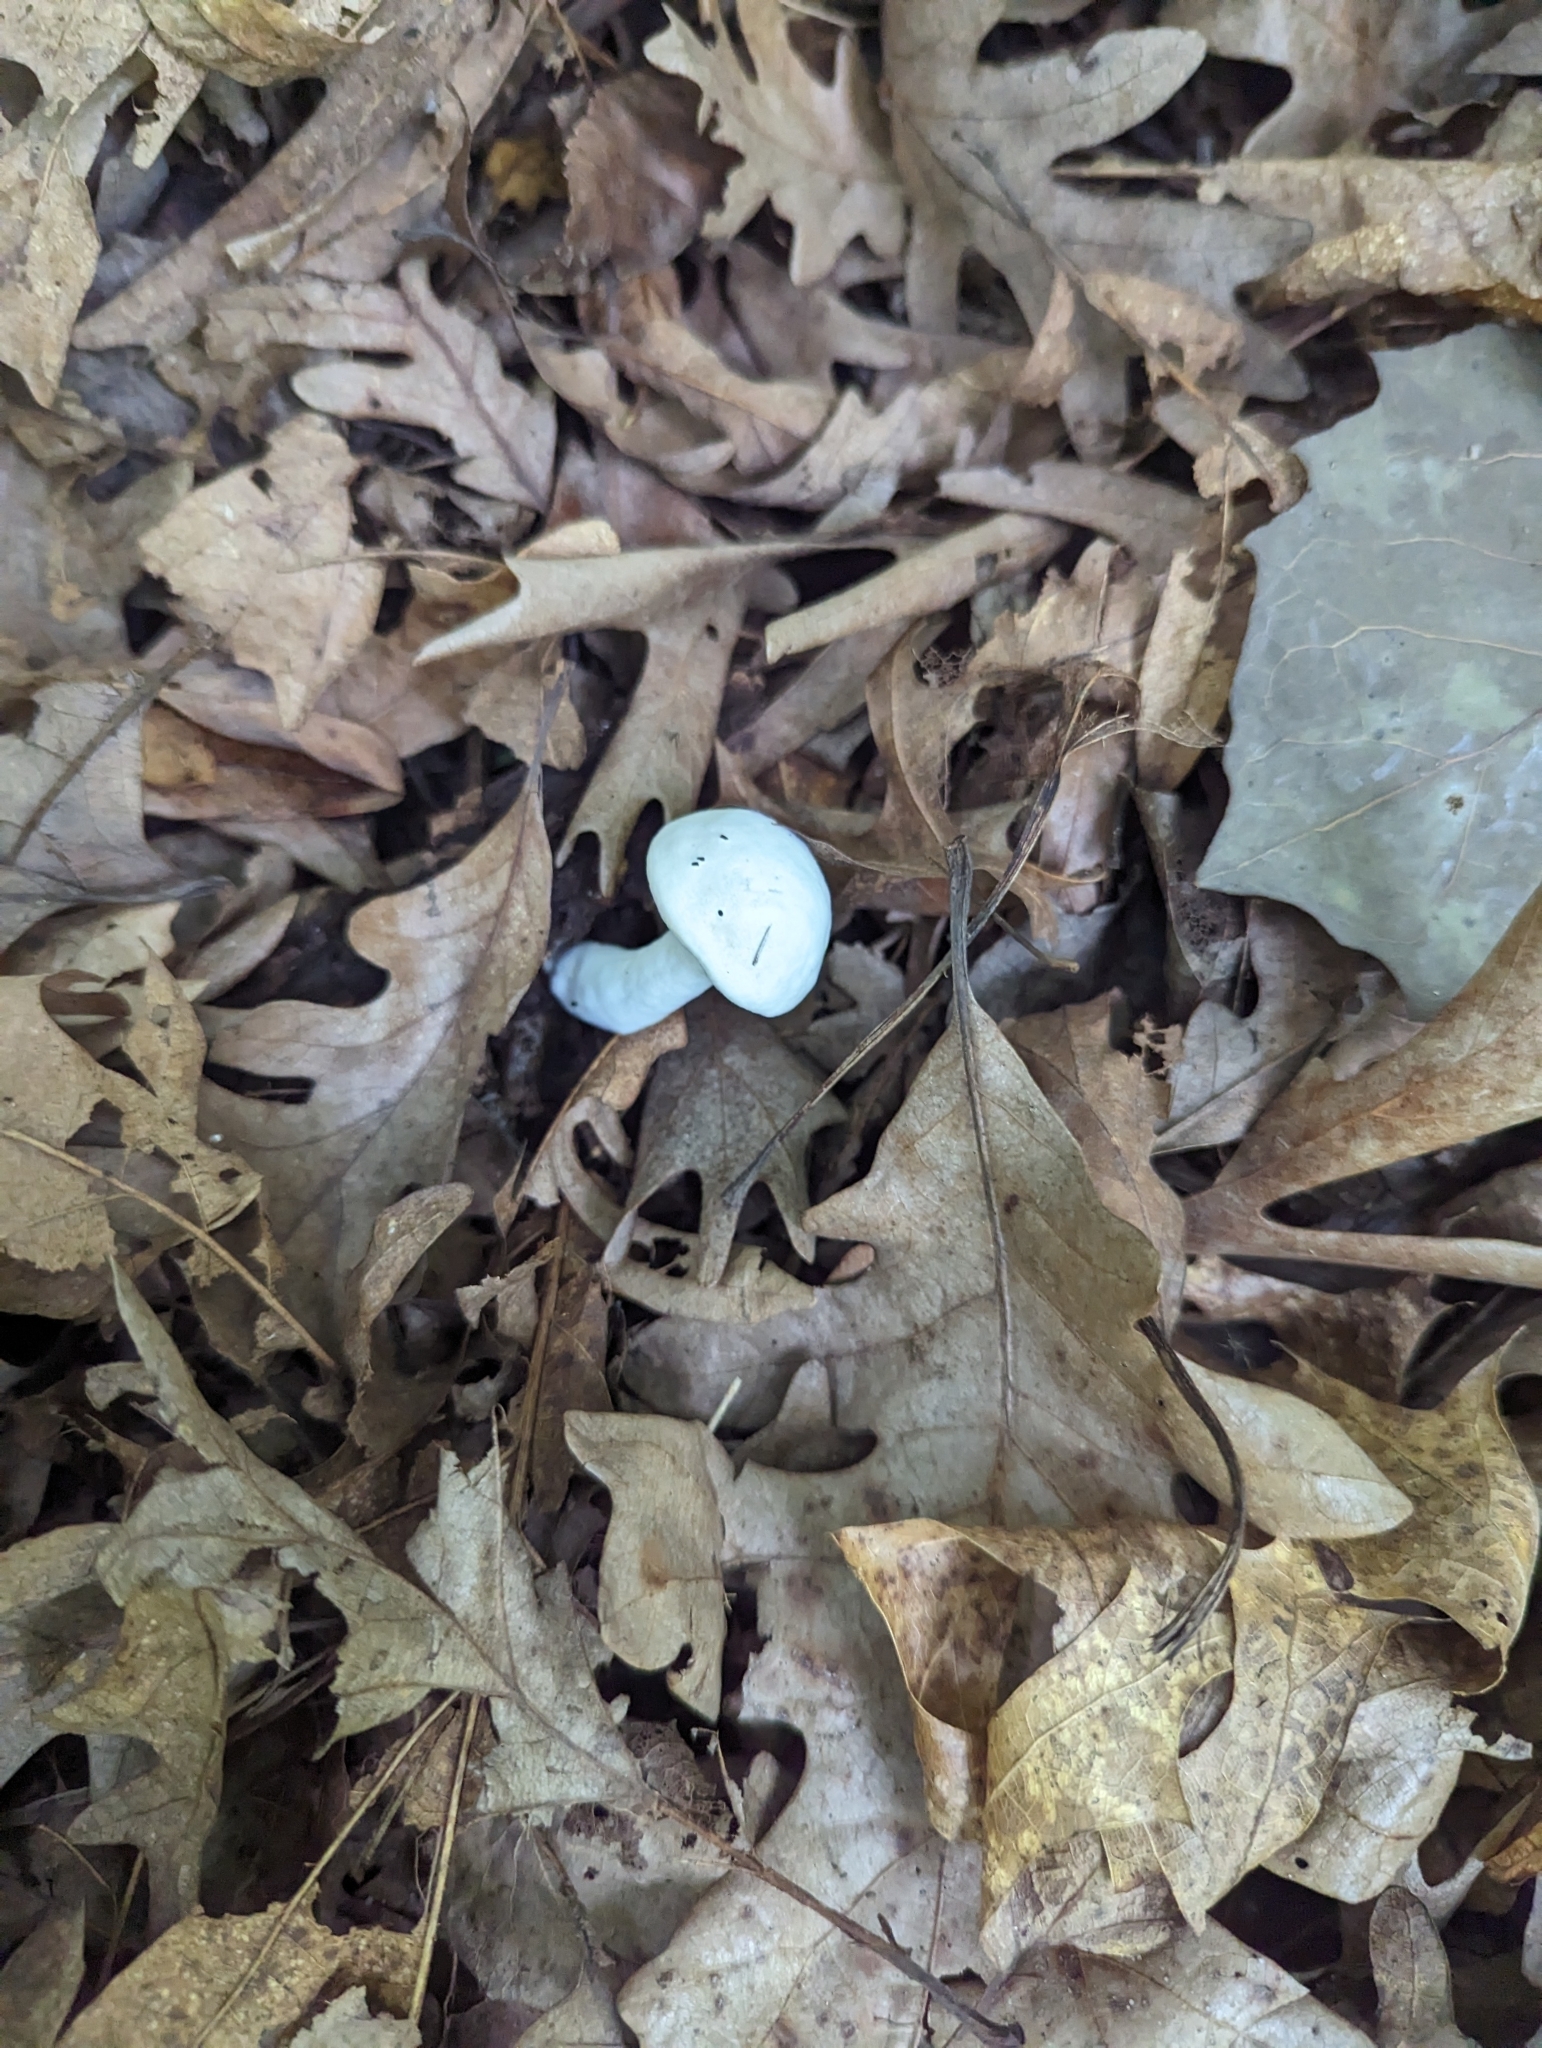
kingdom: Fungi
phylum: Ascomycota
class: Sordariomycetes
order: Hypocreales
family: Hypocreaceae
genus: Hypomyces
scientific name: Hypomyces chrysospermus
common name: Bolete mould
